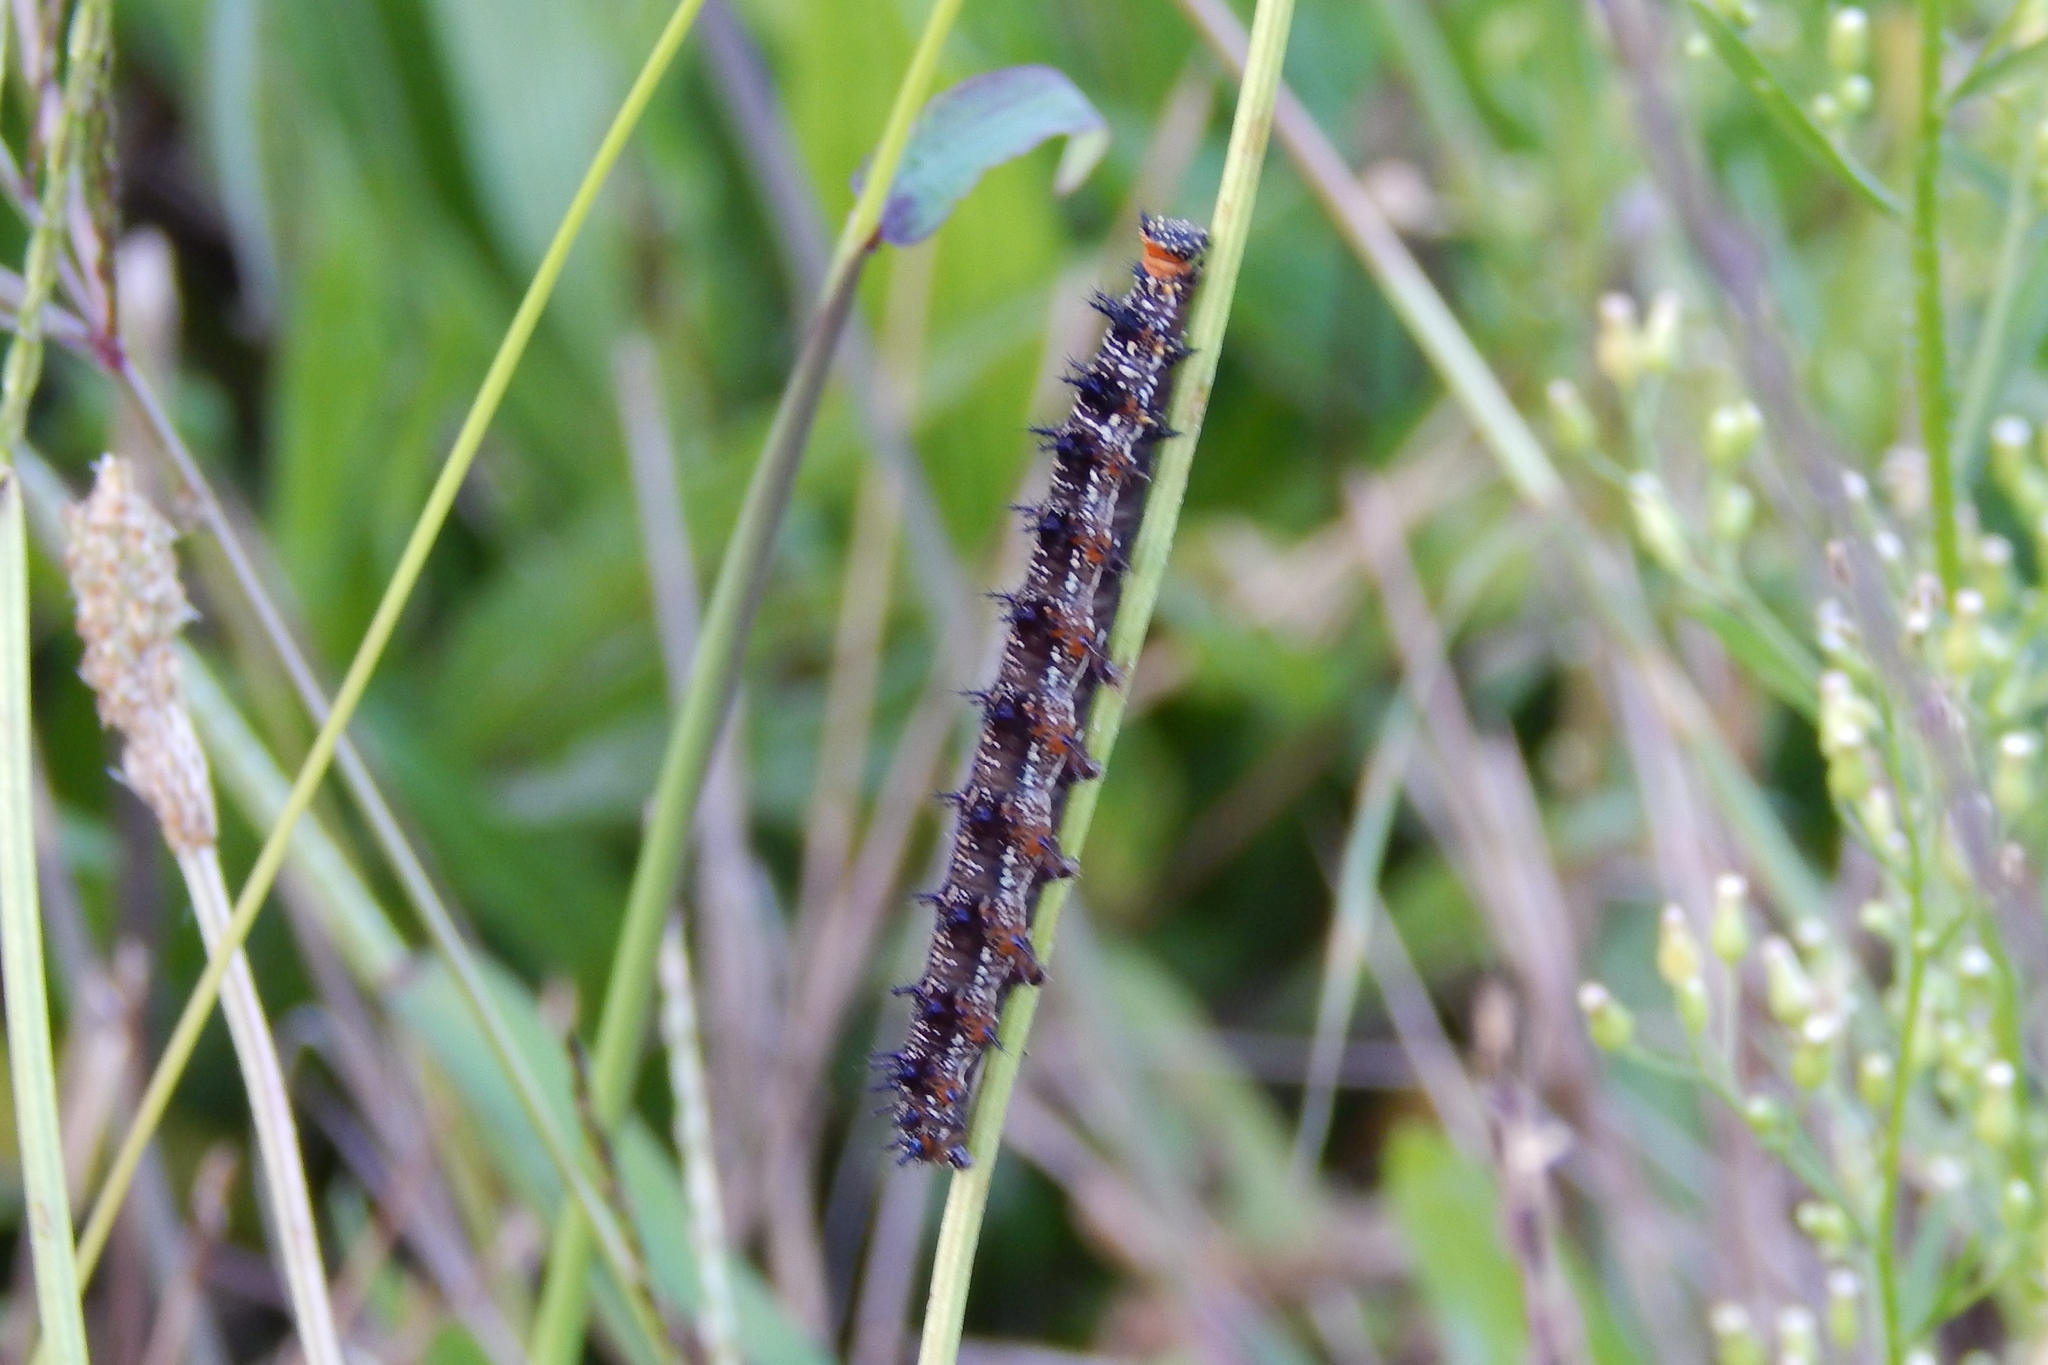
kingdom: Animalia
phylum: Arthropoda
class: Insecta
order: Lepidoptera
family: Nymphalidae
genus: Junonia
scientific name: Junonia coenia
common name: Common buckeye
